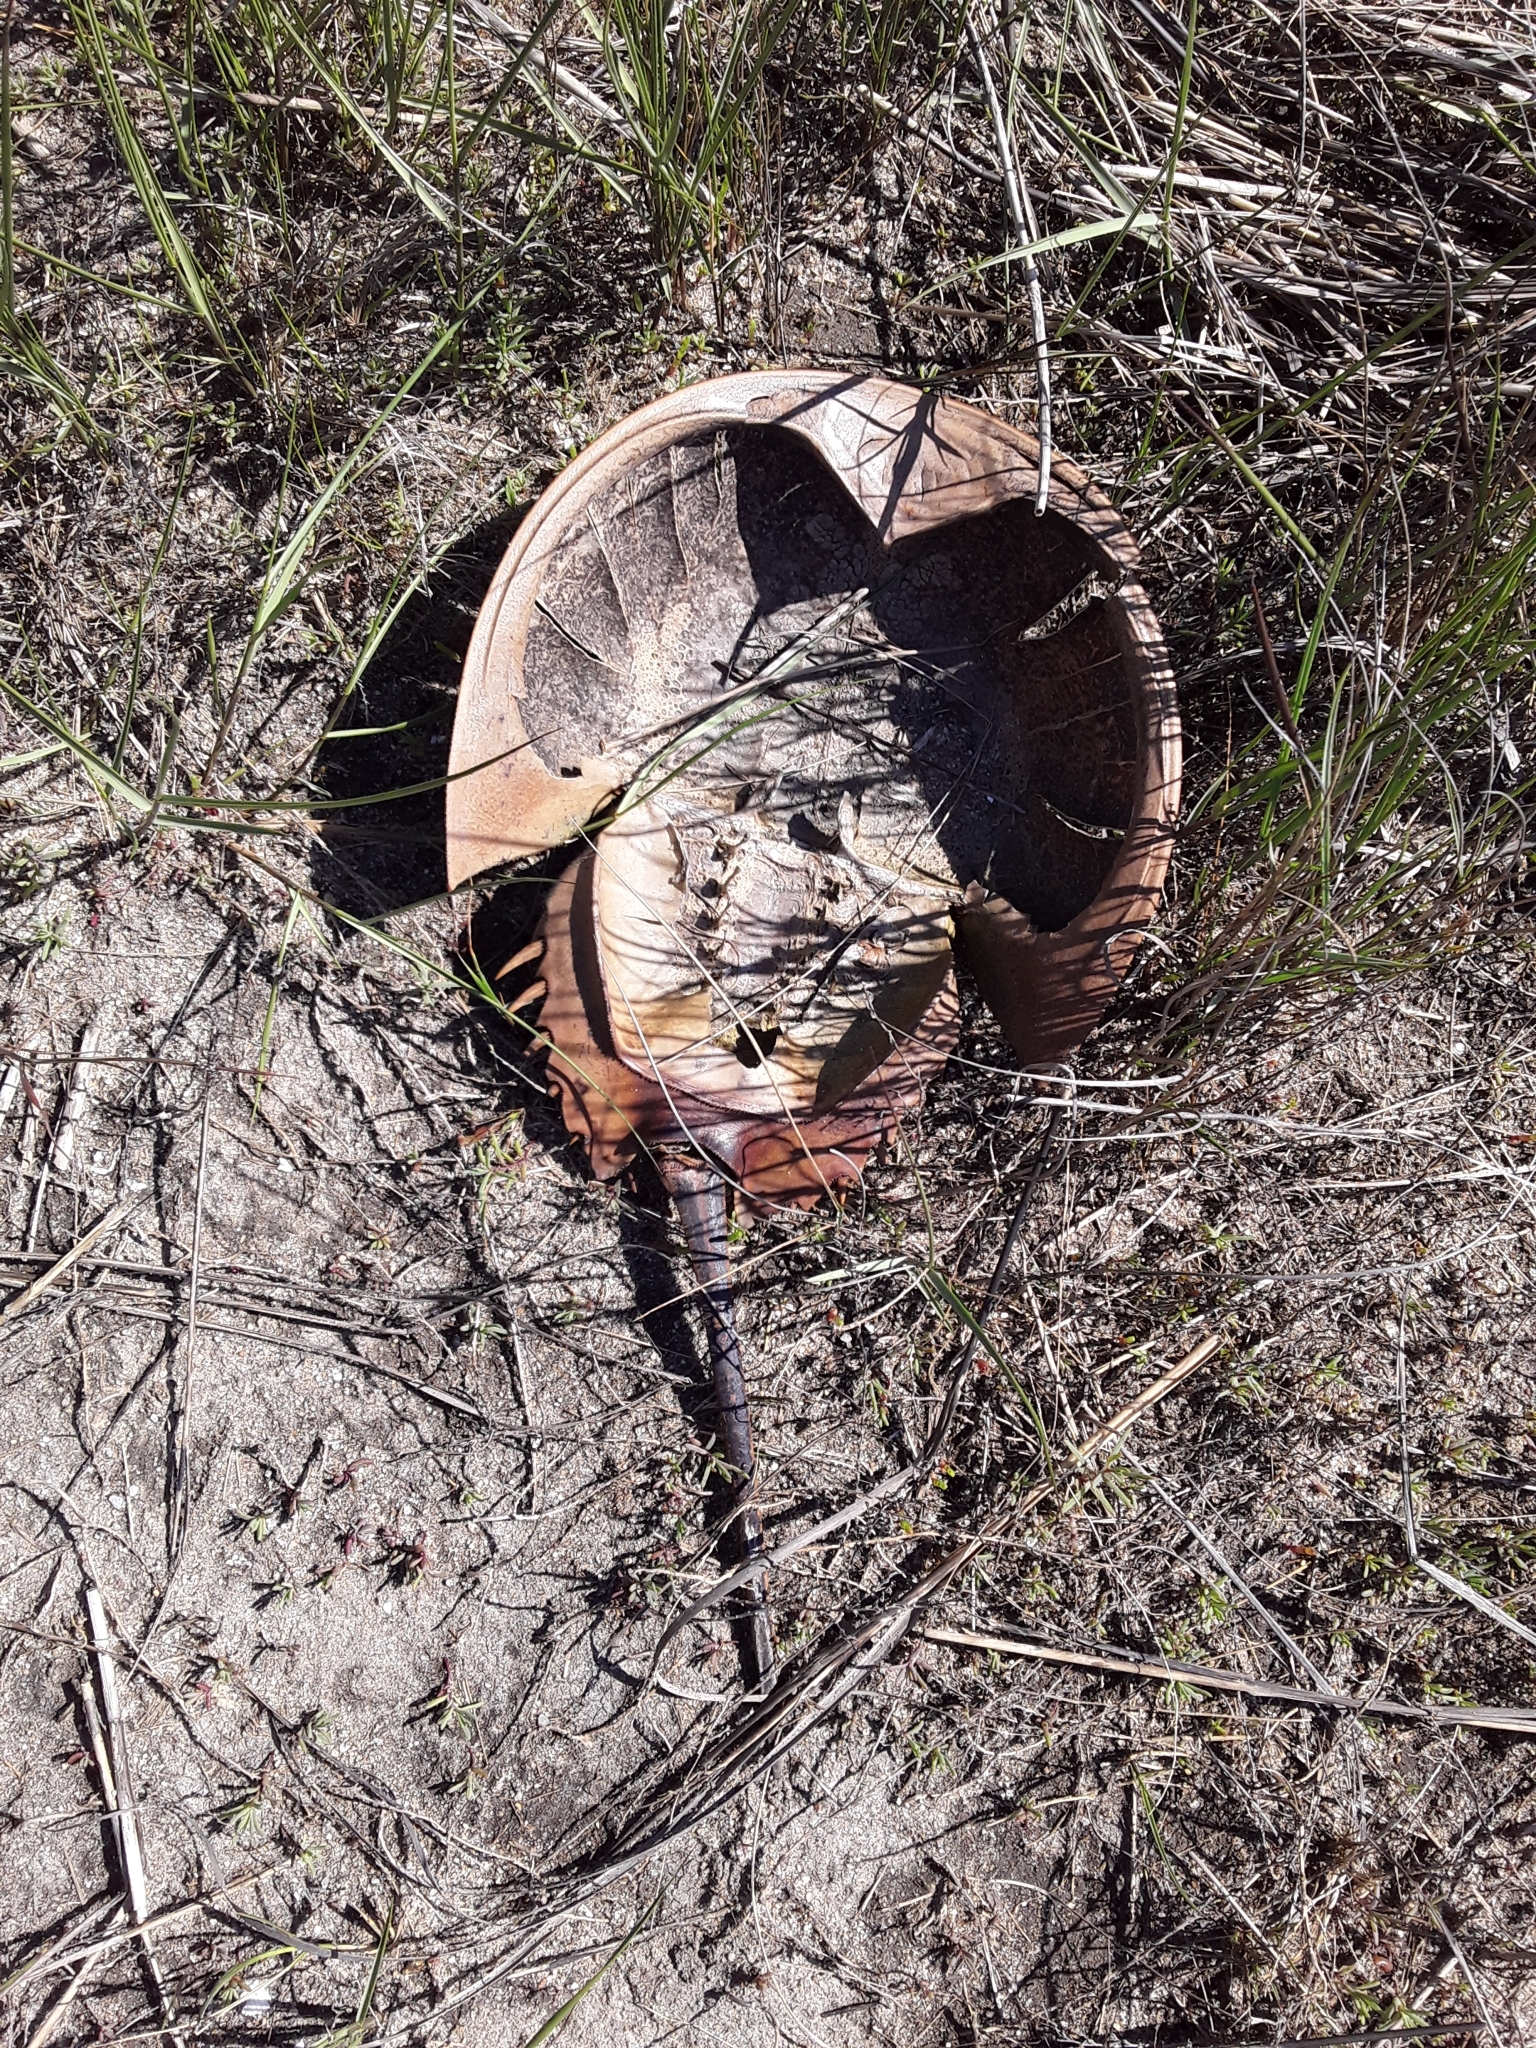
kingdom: Animalia
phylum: Arthropoda
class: Merostomata
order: Xiphosurida
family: Limulidae
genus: Limulus
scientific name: Limulus polyphemus
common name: Horseshoe crab
